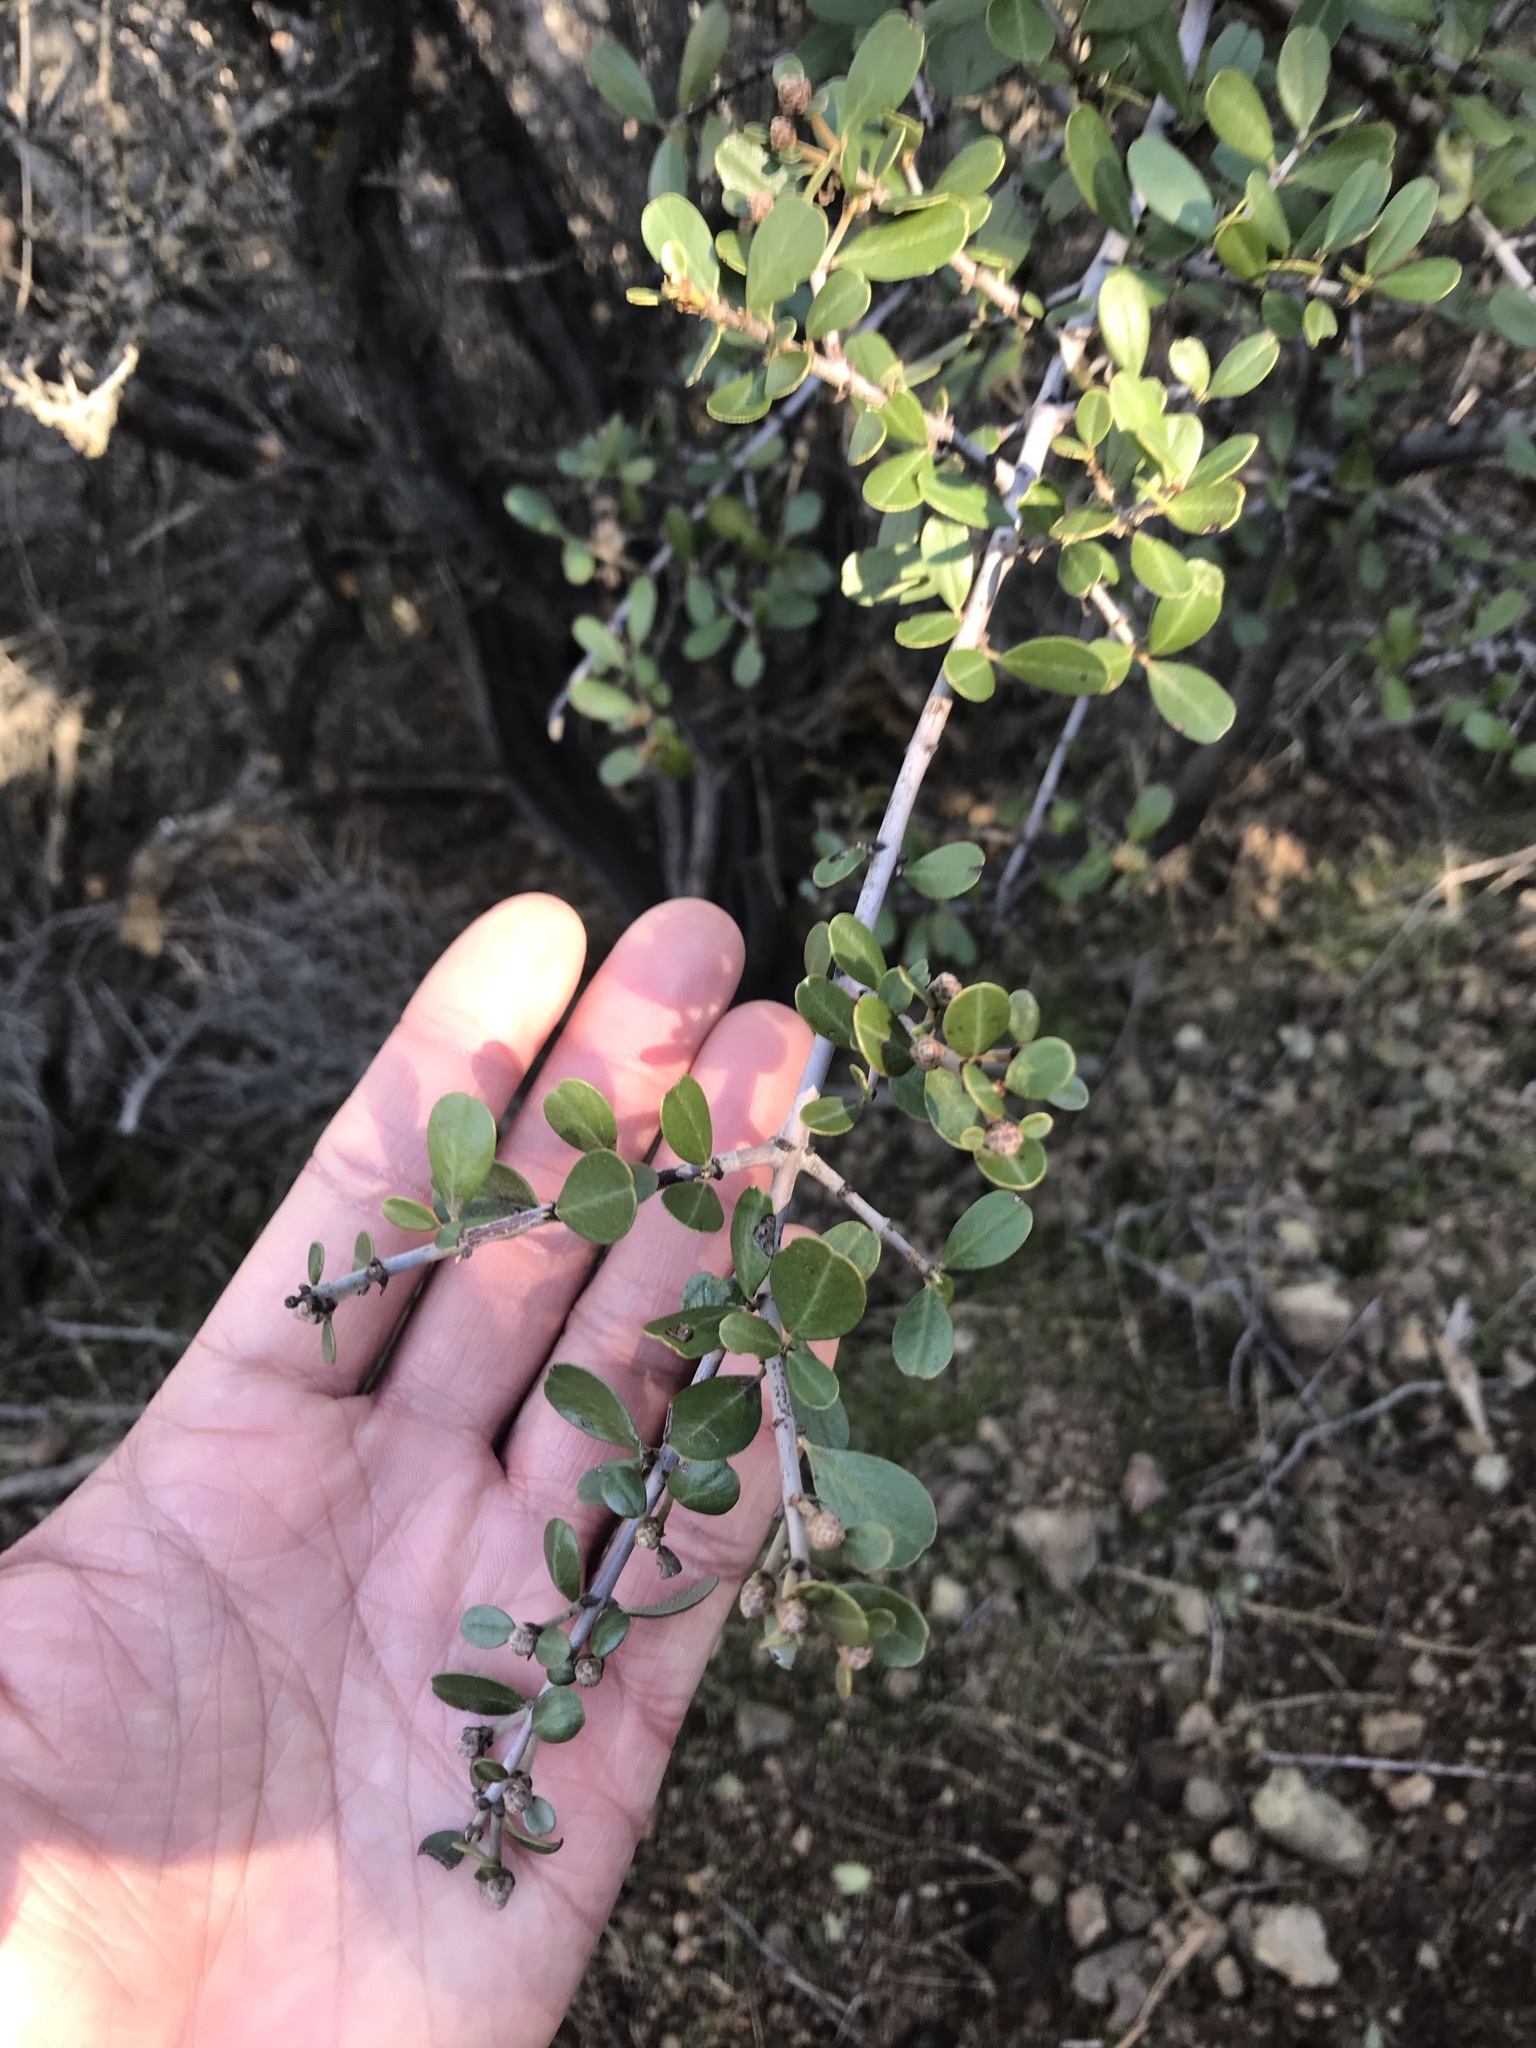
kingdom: Plantae
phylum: Tracheophyta
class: Magnoliopsida
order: Rosales
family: Rhamnaceae
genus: Ceanothus
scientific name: Ceanothus cuneatus
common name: Cuneate ceanothus
